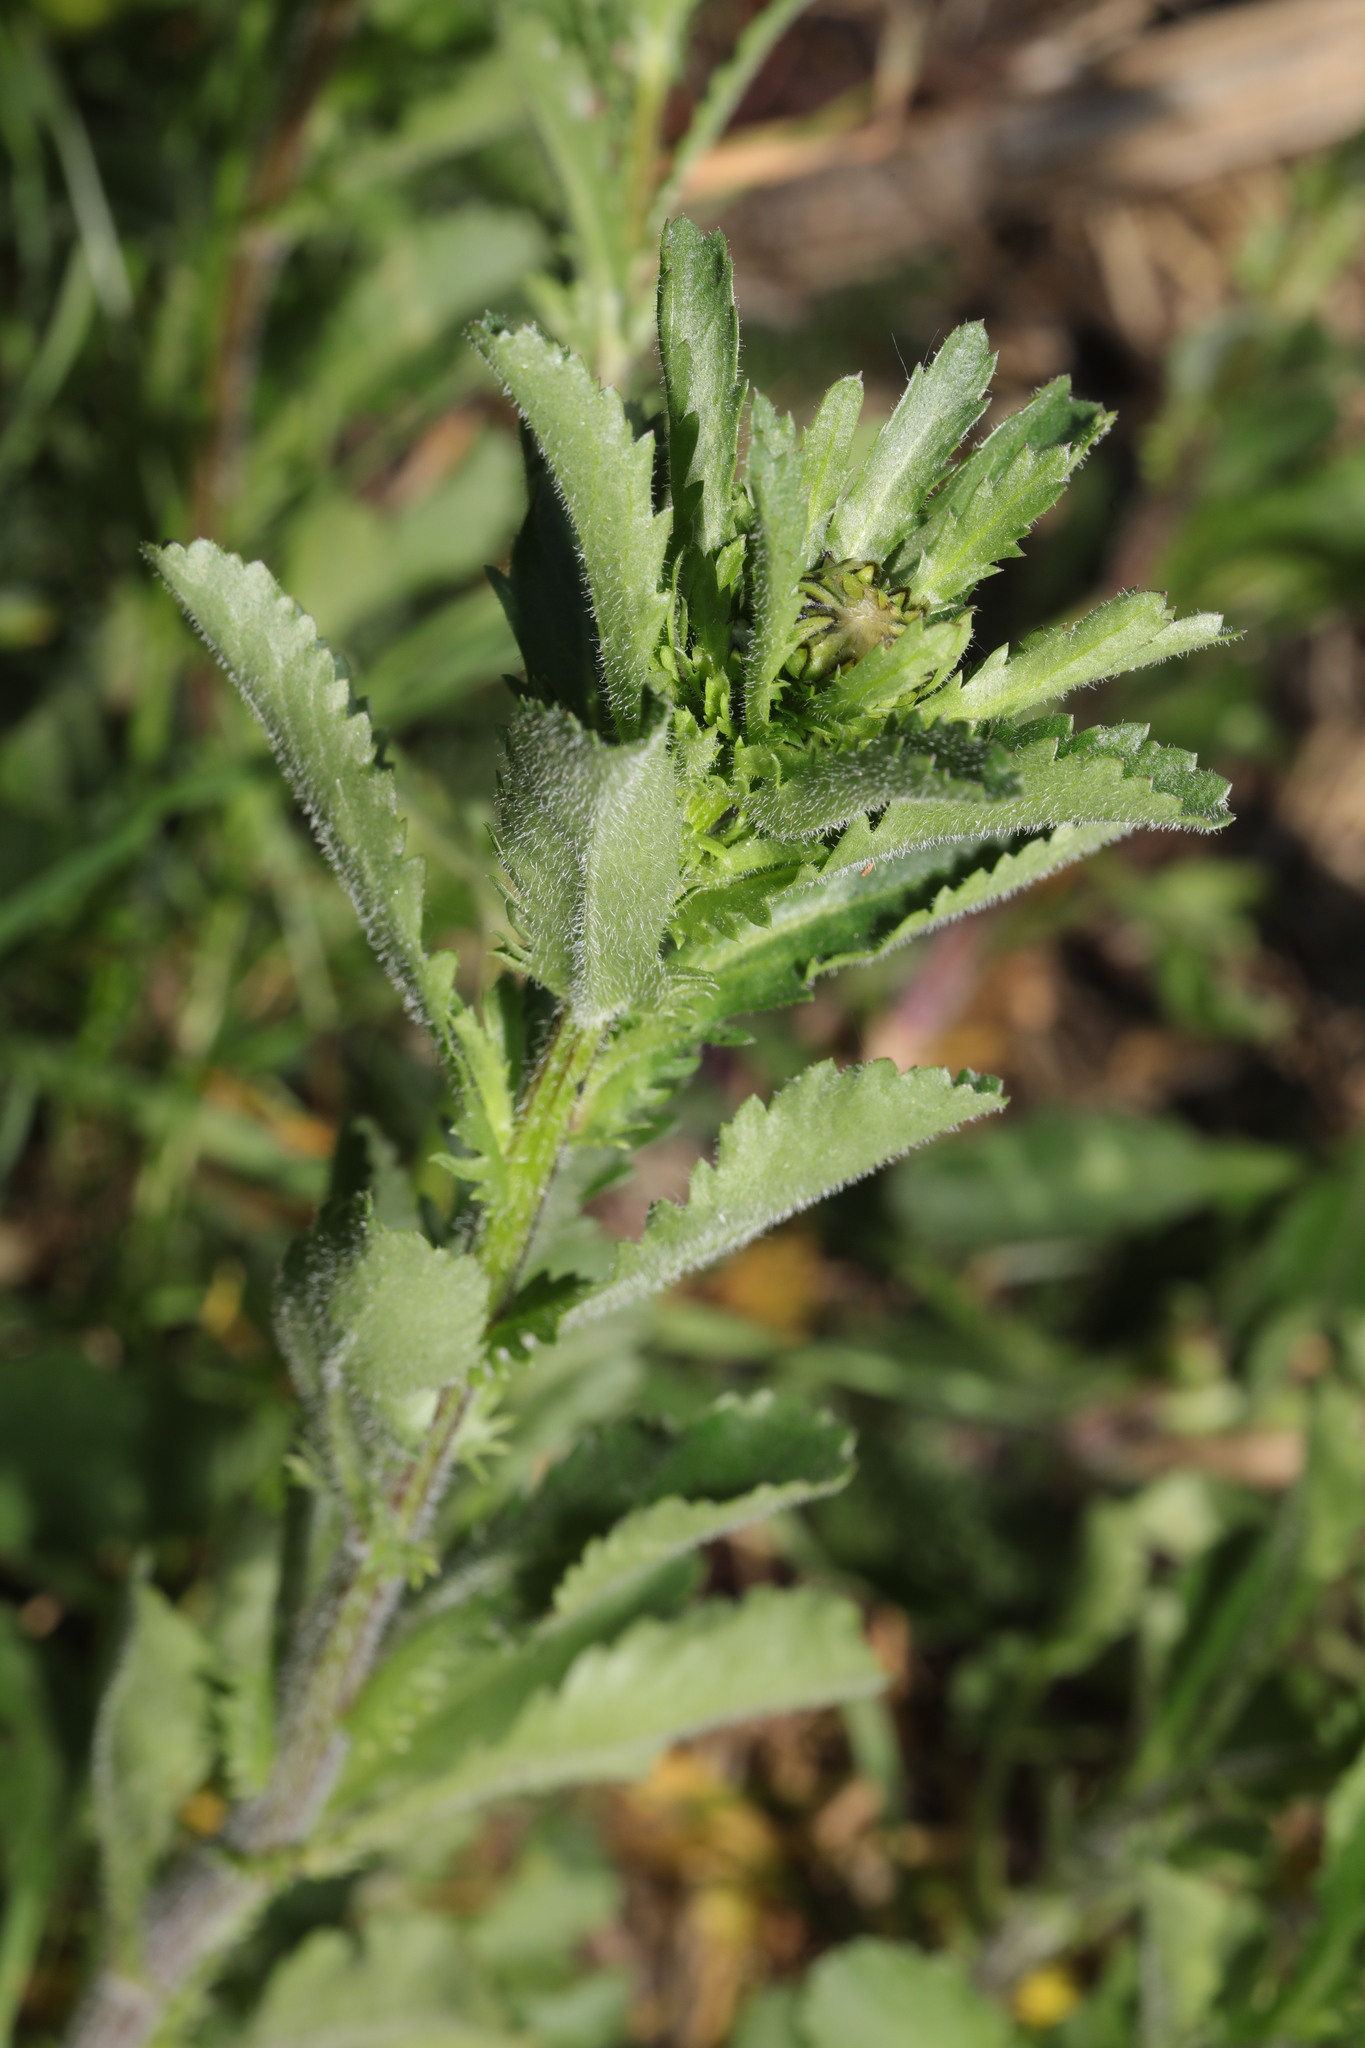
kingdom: Plantae
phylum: Tracheophyta
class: Magnoliopsida
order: Asterales
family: Asteraceae
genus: Leucanthemum
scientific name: Leucanthemum vulgare
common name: Oxeye daisy
